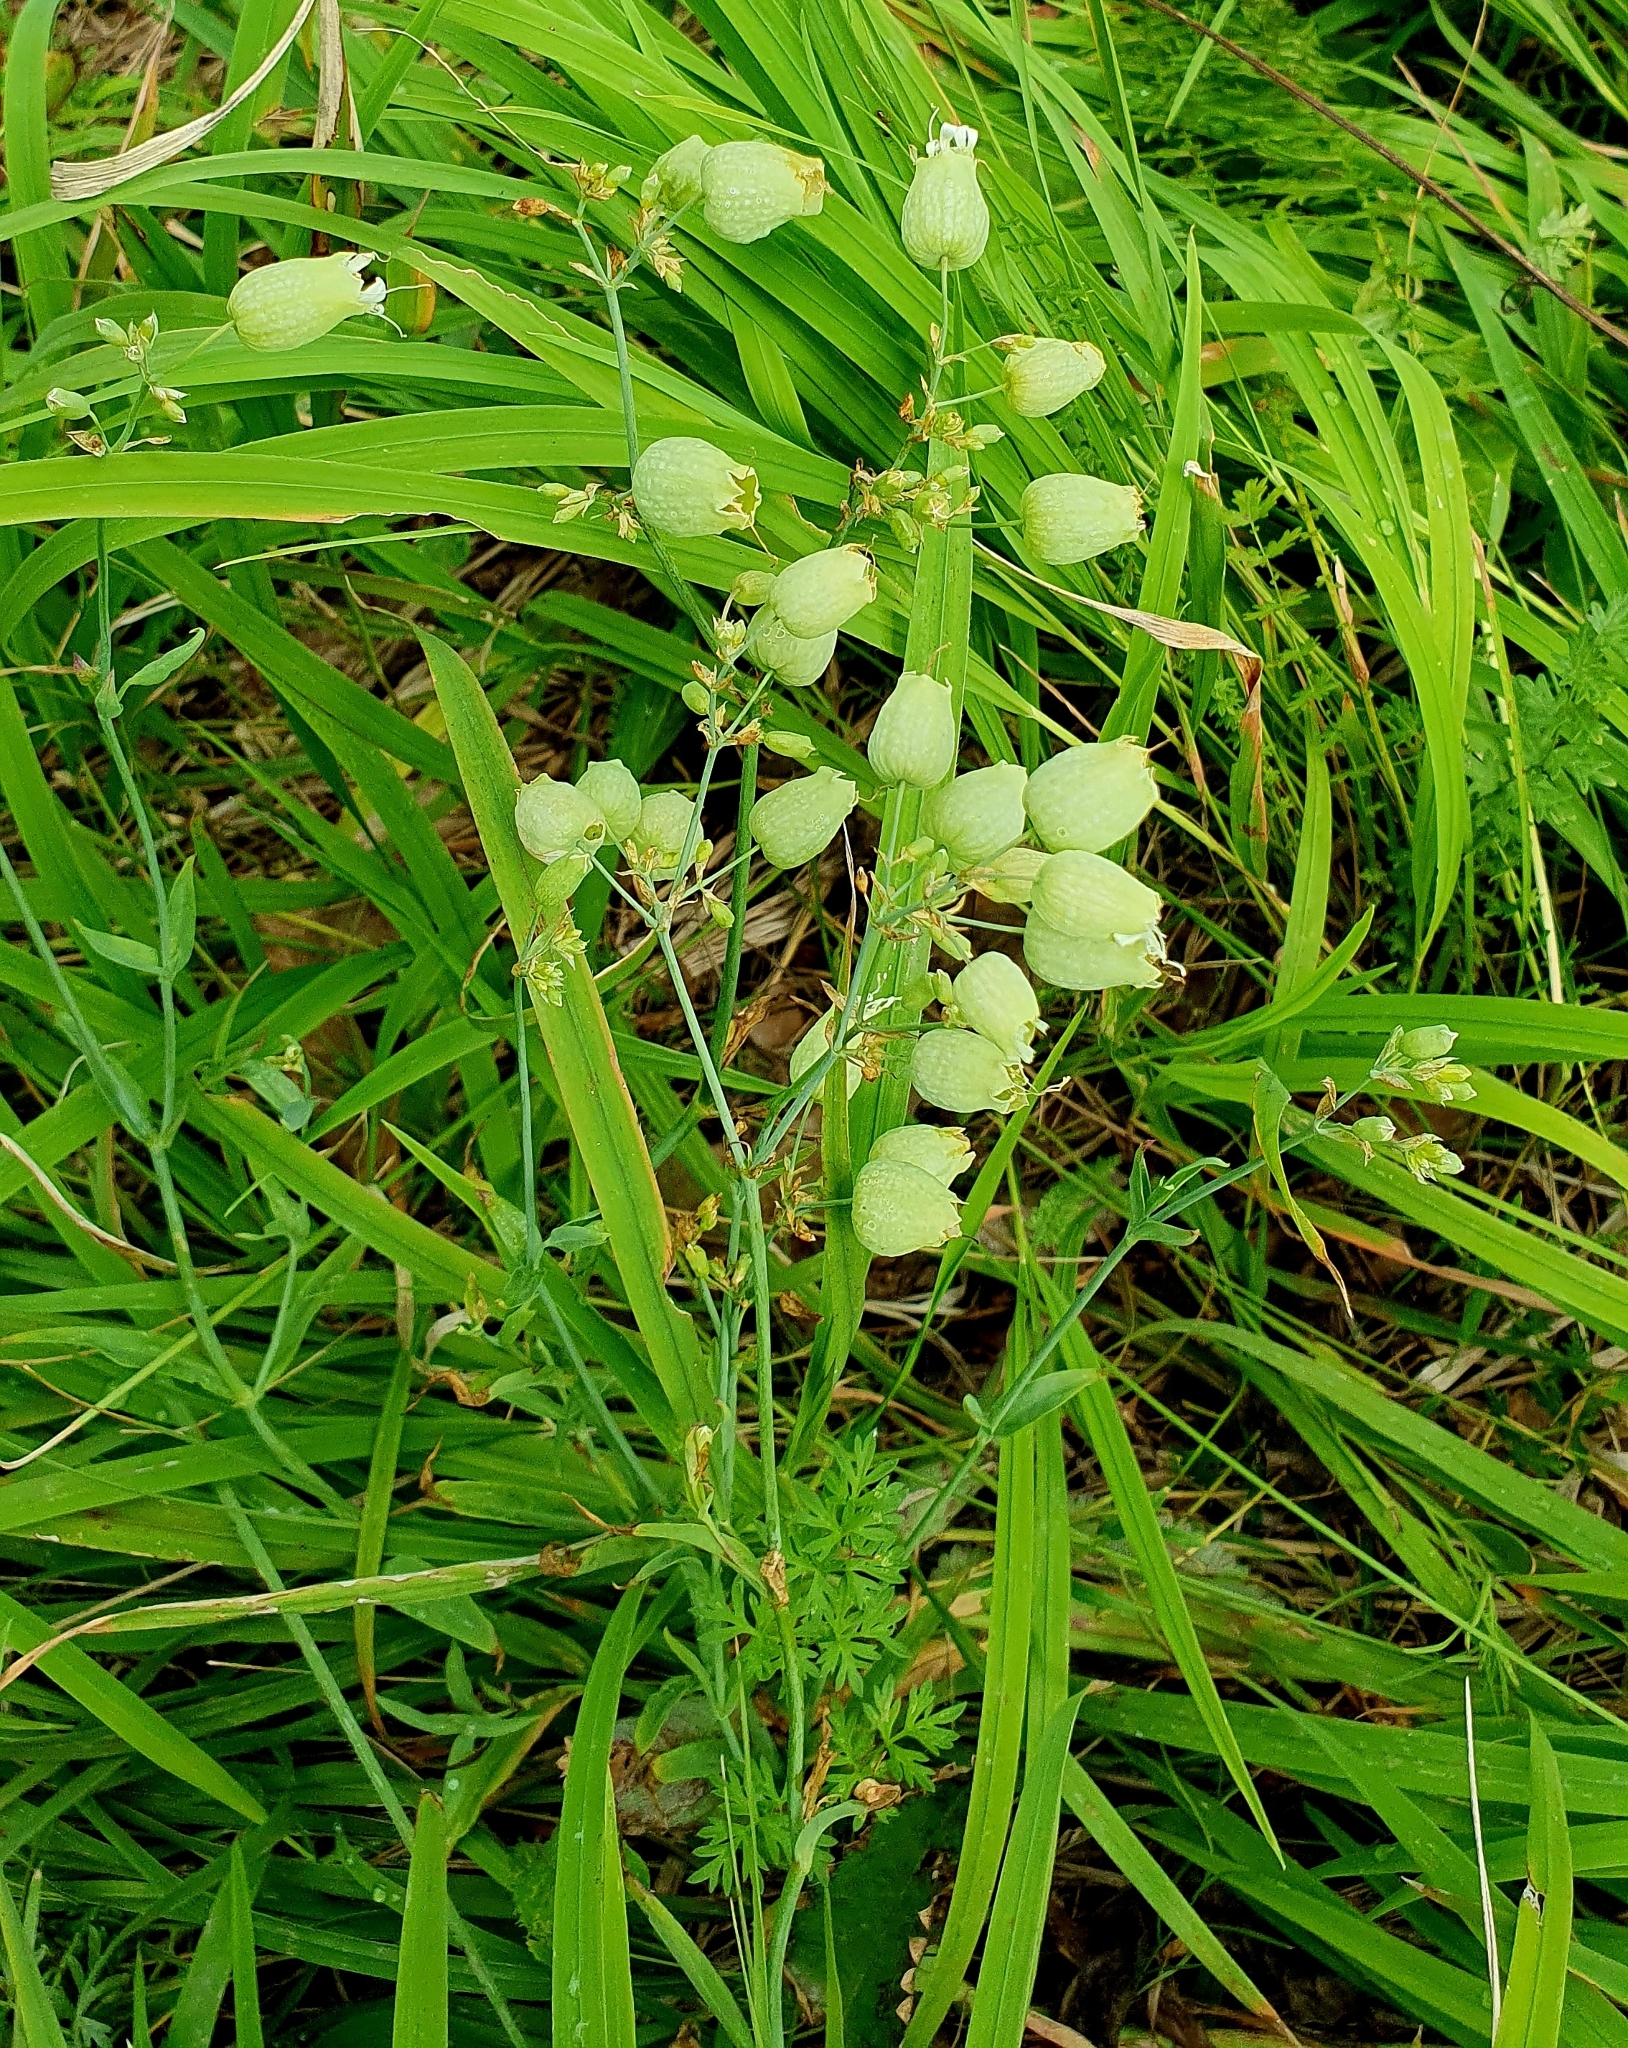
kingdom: Plantae
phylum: Tracheophyta
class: Magnoliopsida
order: Caryophyllales
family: Caryophyllaceae
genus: Silene
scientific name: Silene vulgaris
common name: Bladder campion
